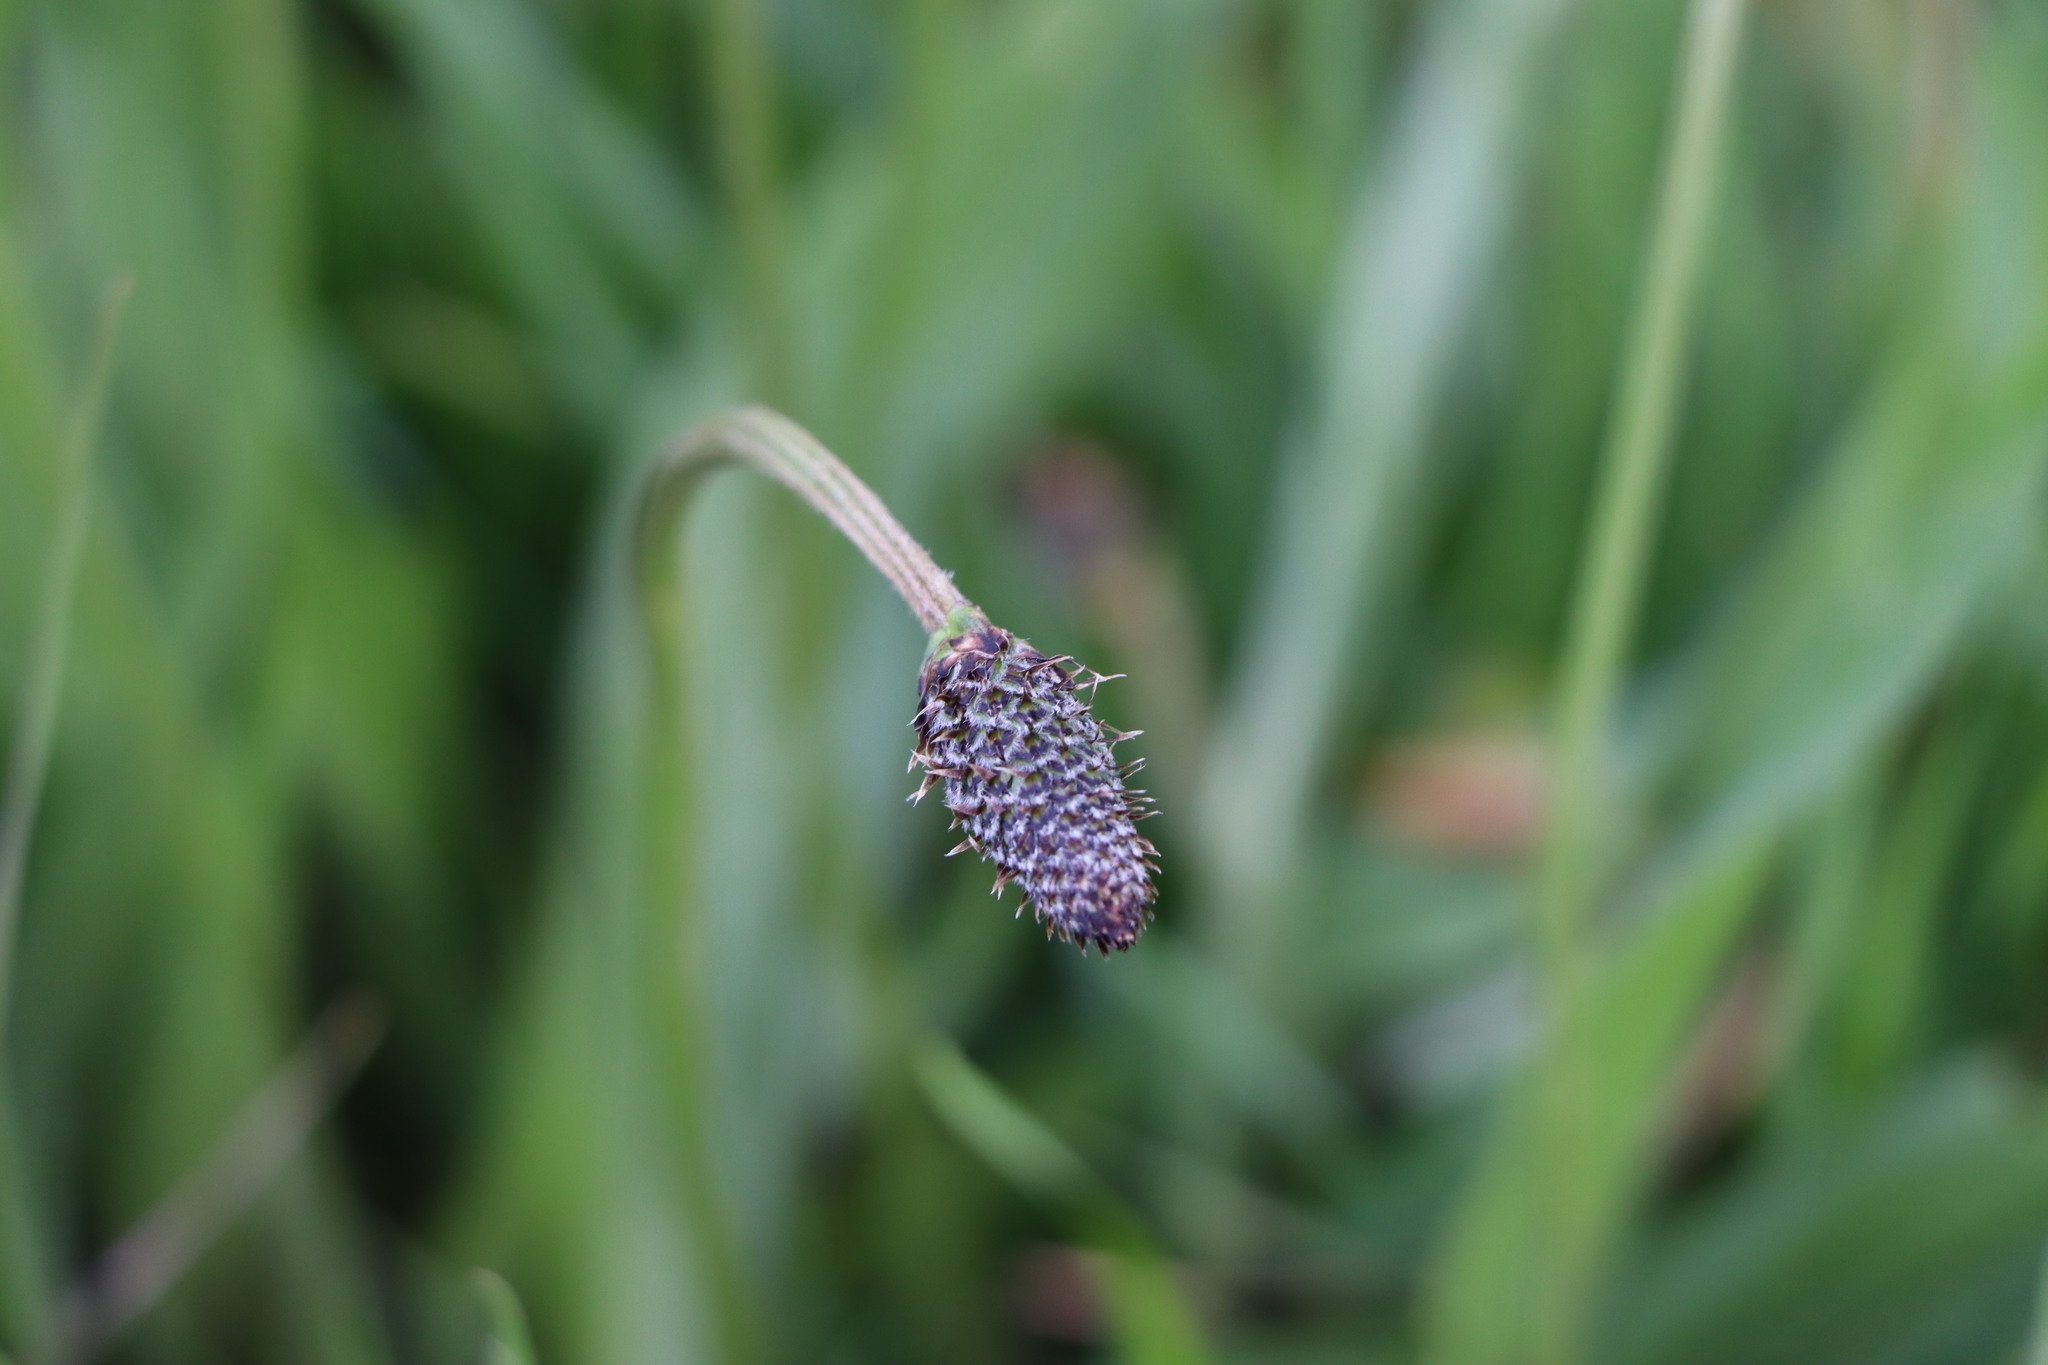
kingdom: Plantae
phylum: Tracheophyta
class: Magnoliopsida
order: Lamiales
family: Plantaginaceae
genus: Plantago
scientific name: Plantago lanceolata
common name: Ribwort plantain
